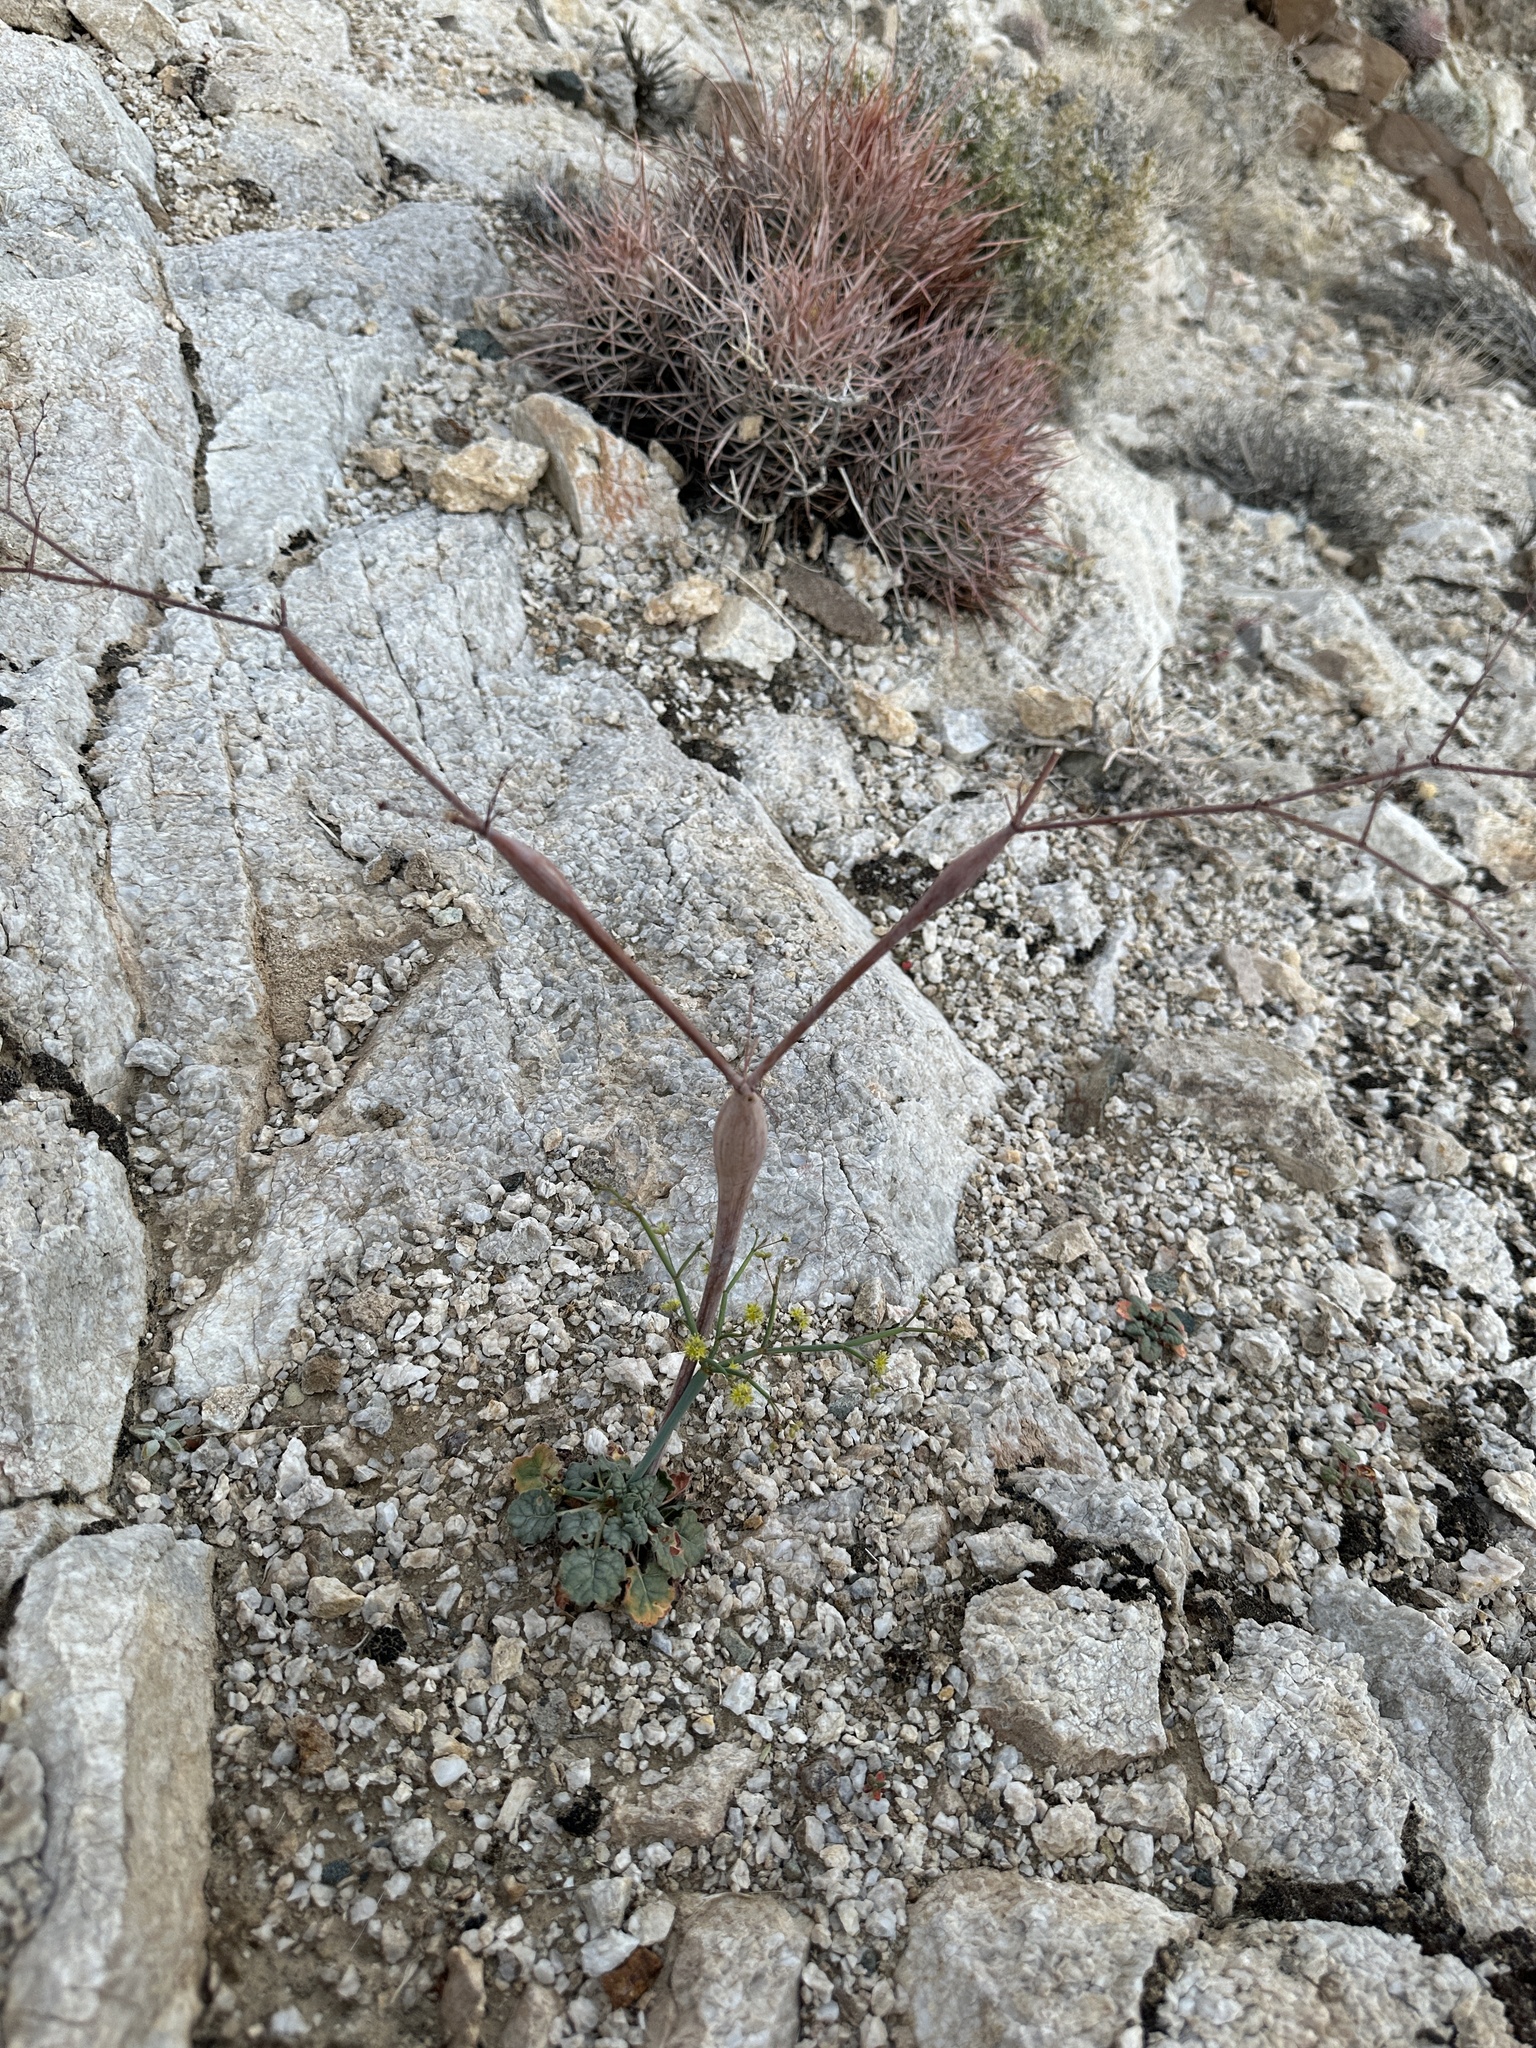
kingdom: Plantae
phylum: Tracheophyta
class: Magnoliopsida
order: Caryophyllales
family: Polygonaceae
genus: Eriogonum
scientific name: Eriogonum inflatum
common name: Desert trumpet
